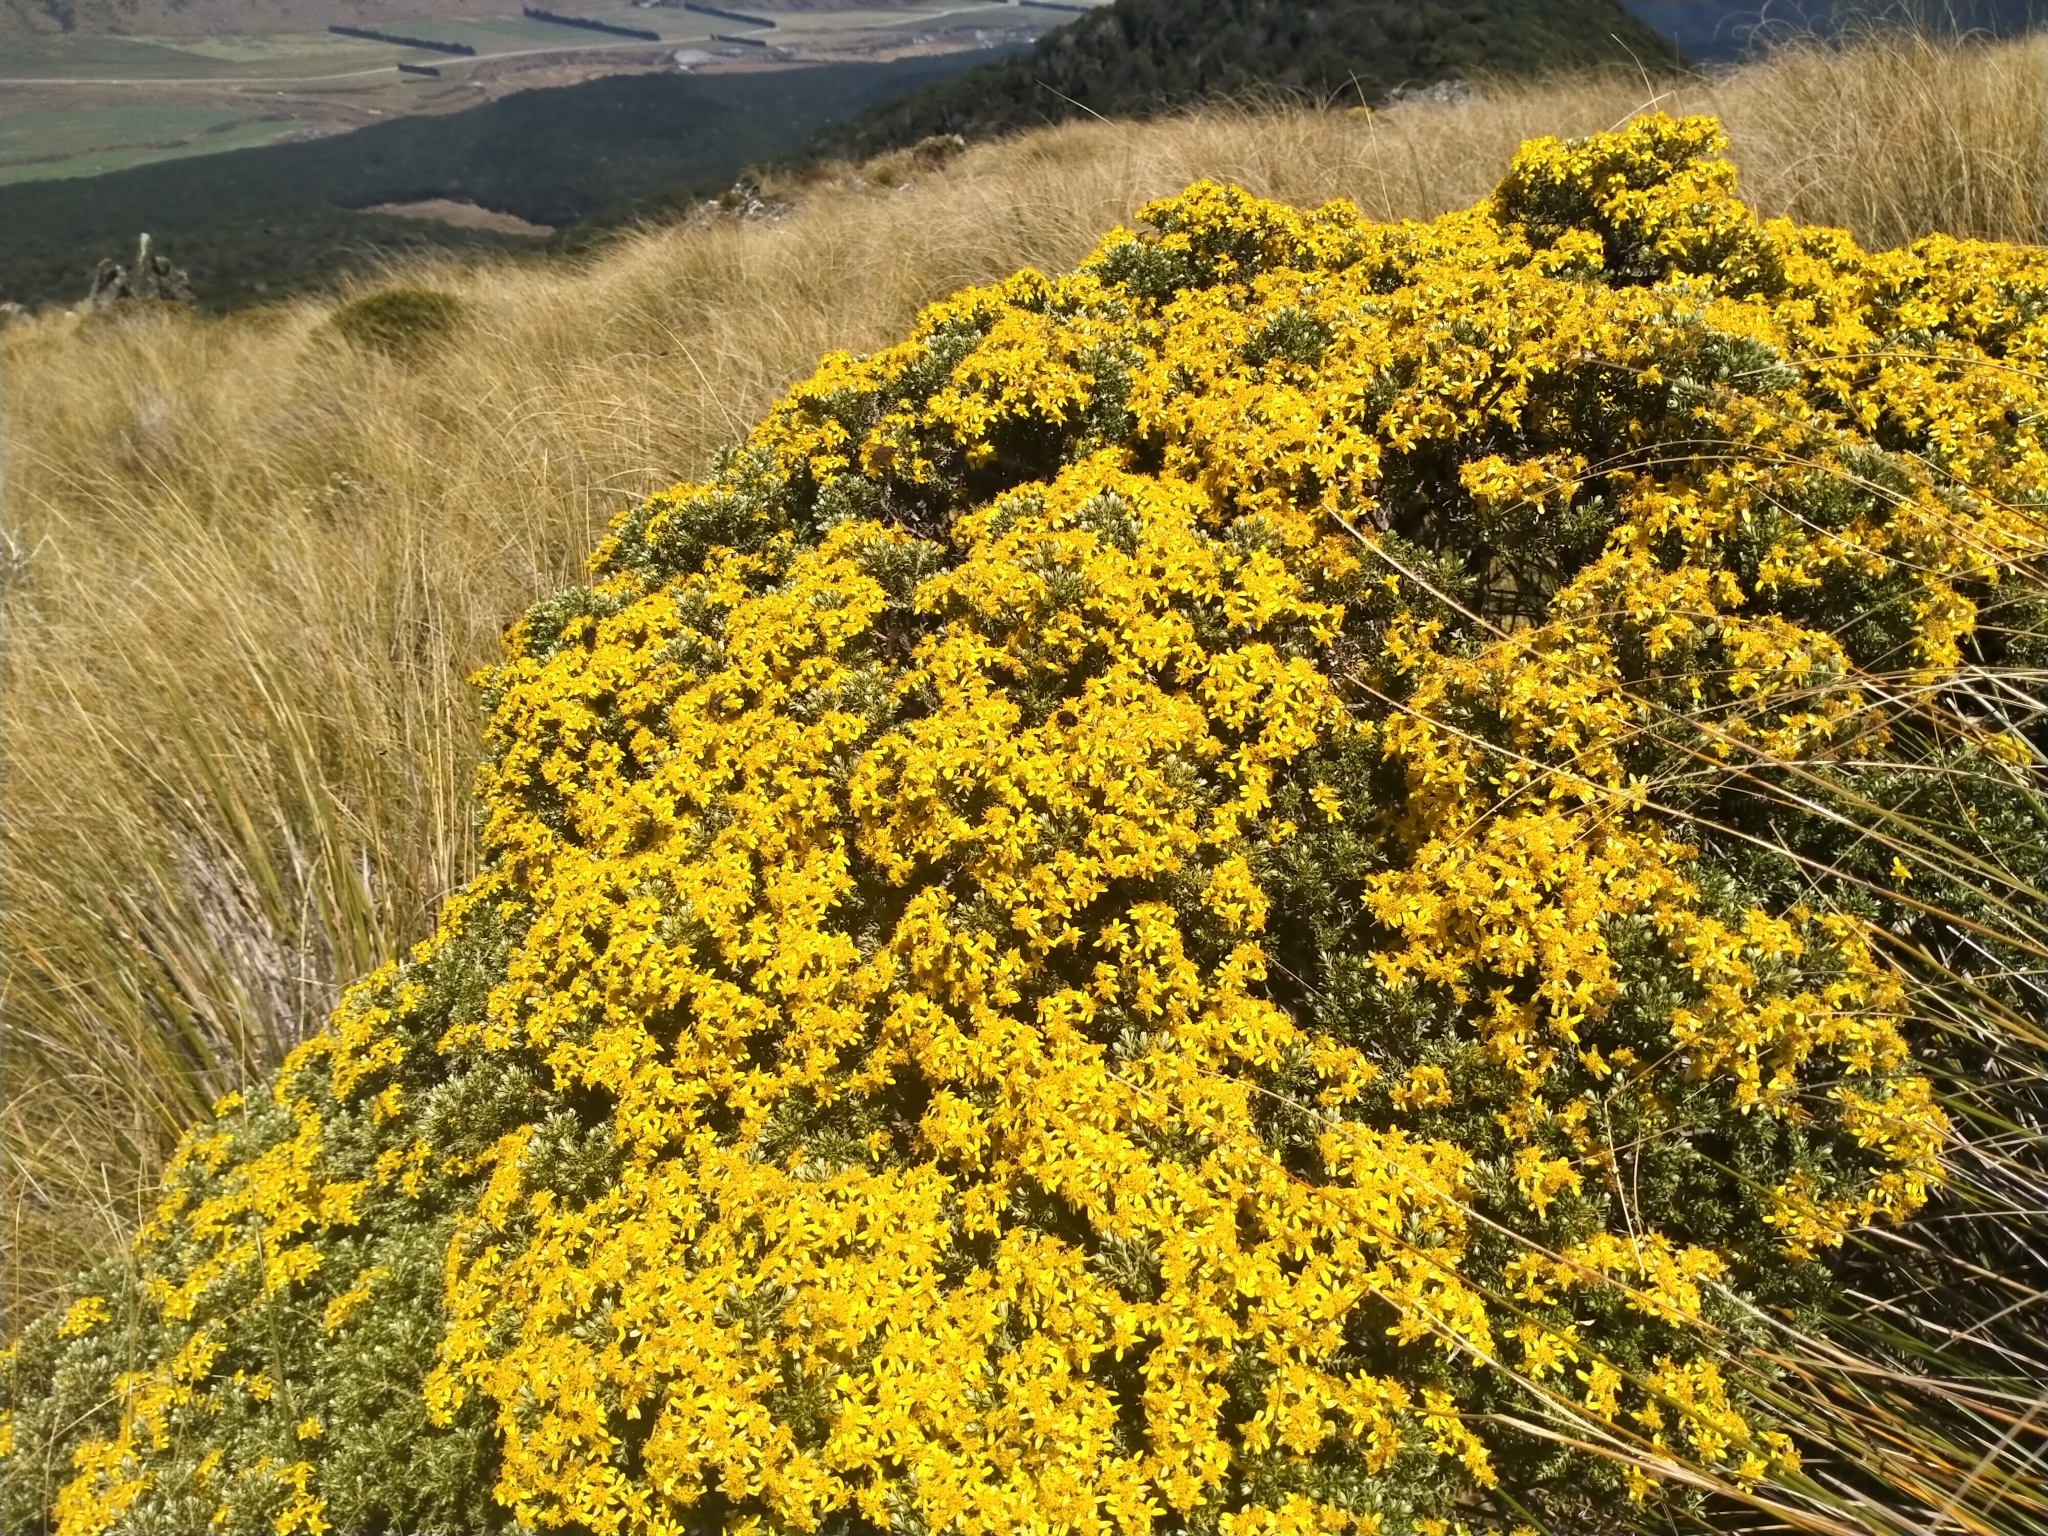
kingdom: Plantae
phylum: Tracheophyta
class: Magnoliopsida
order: Asterales
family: Asteraceae
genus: Brachyglottis
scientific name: Brachyglottis cassinioides
